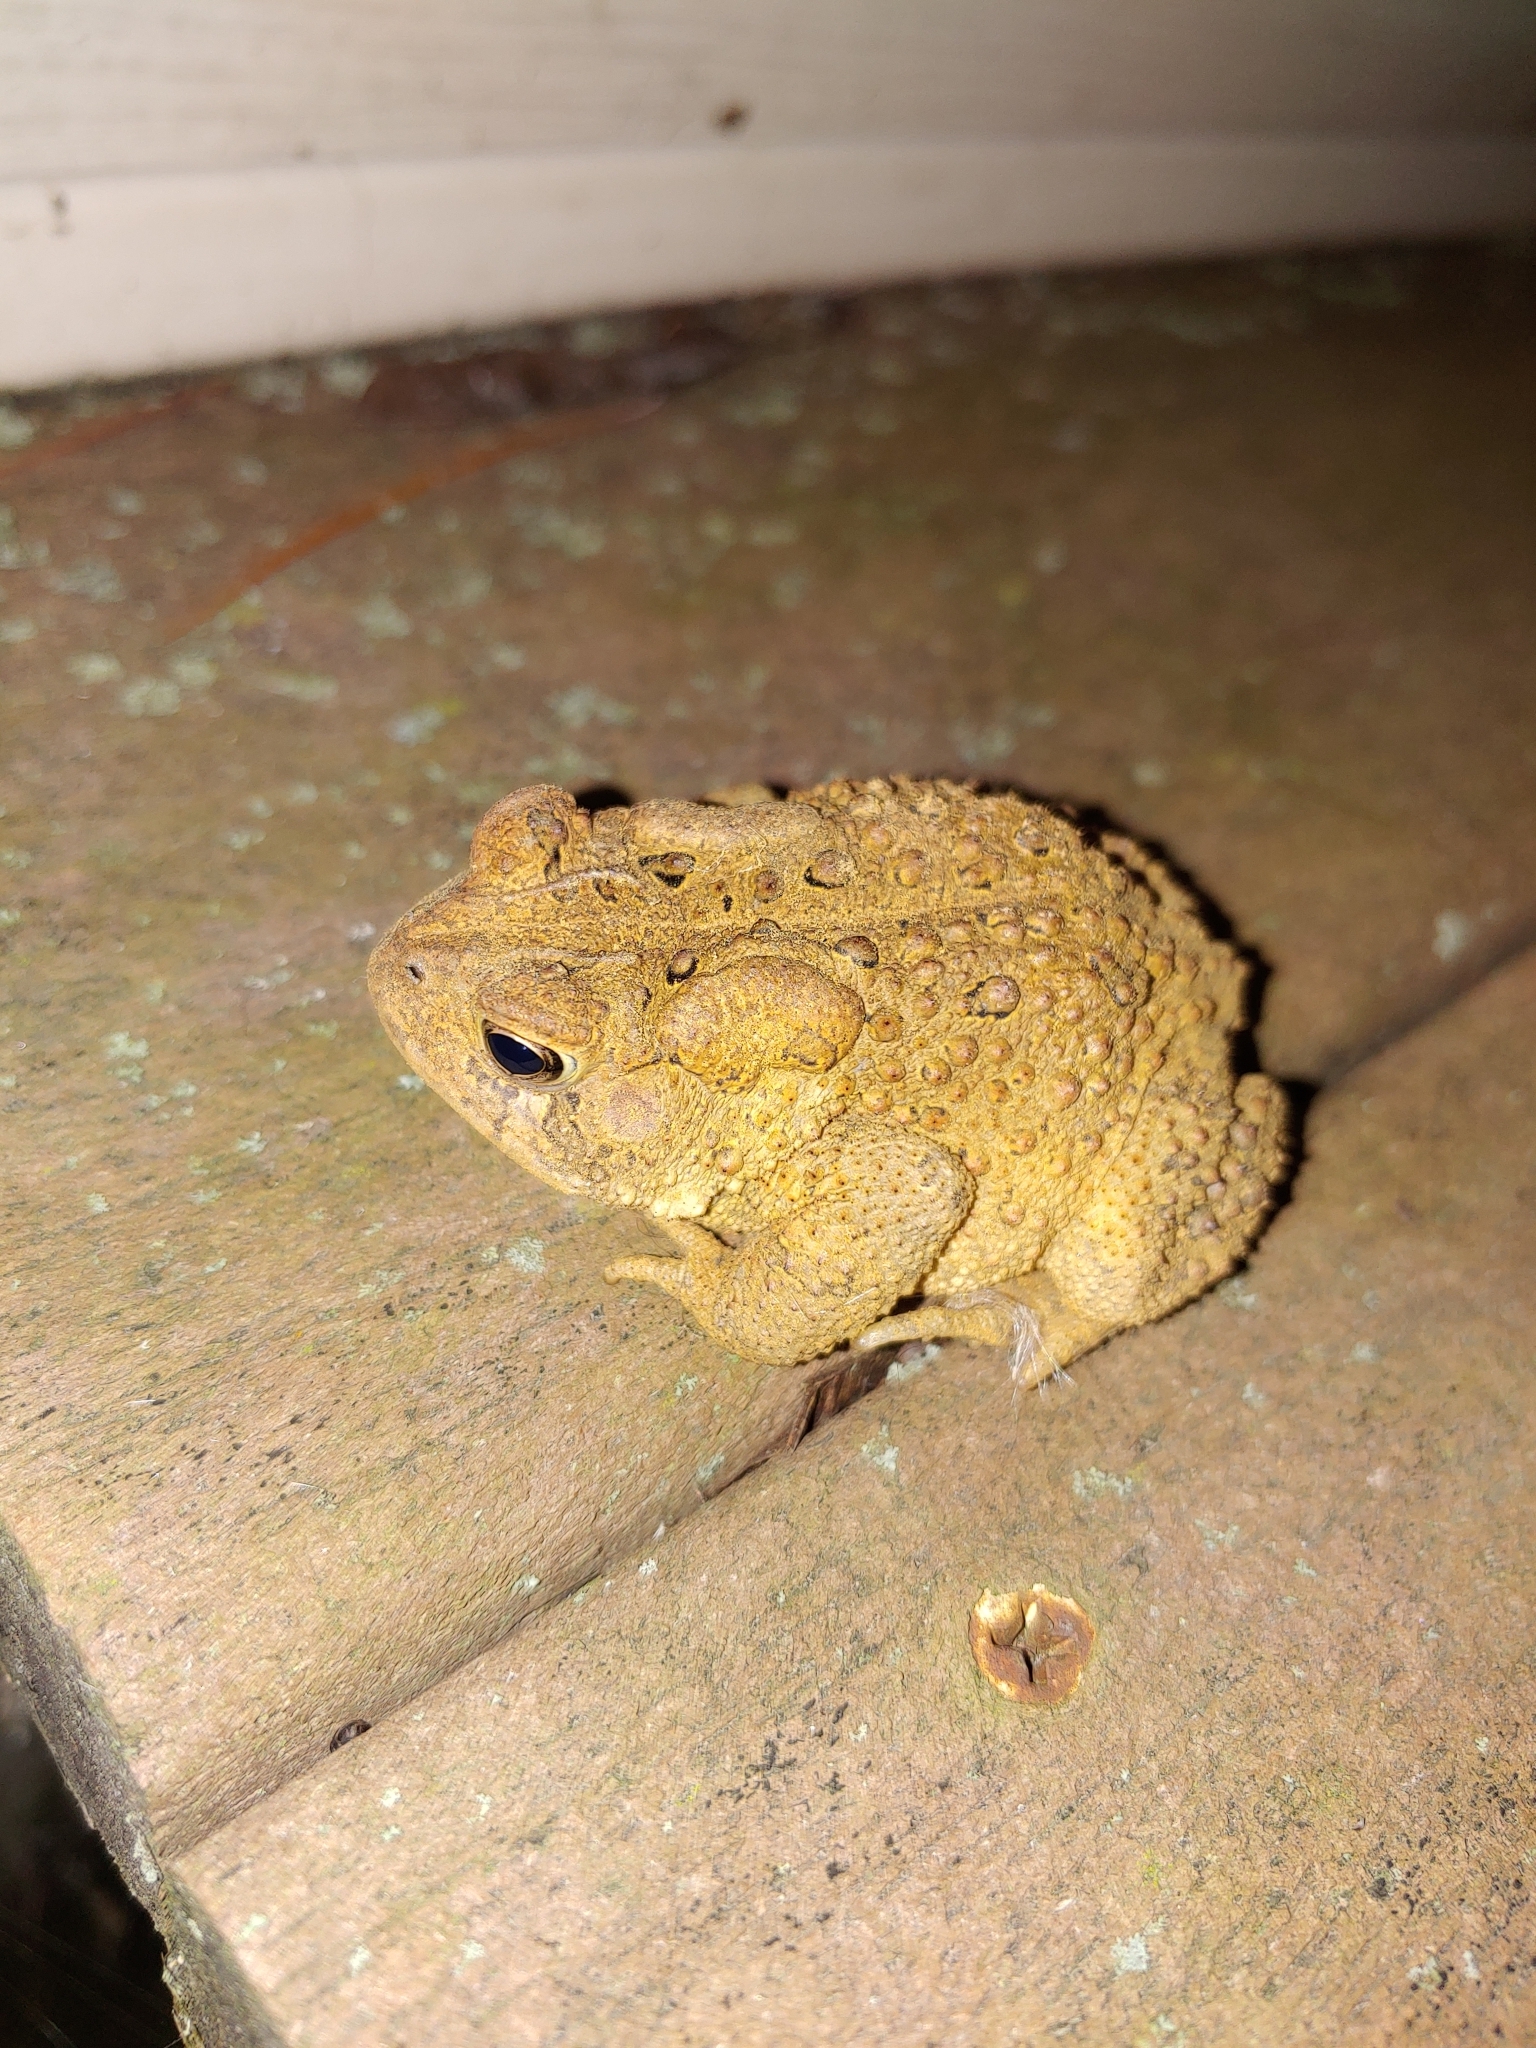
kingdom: Animalia
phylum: Chordata
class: Amphibia
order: Anura
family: Bufonidae
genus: Anaxyrus
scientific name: Anaxyrus americanus
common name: American toad
